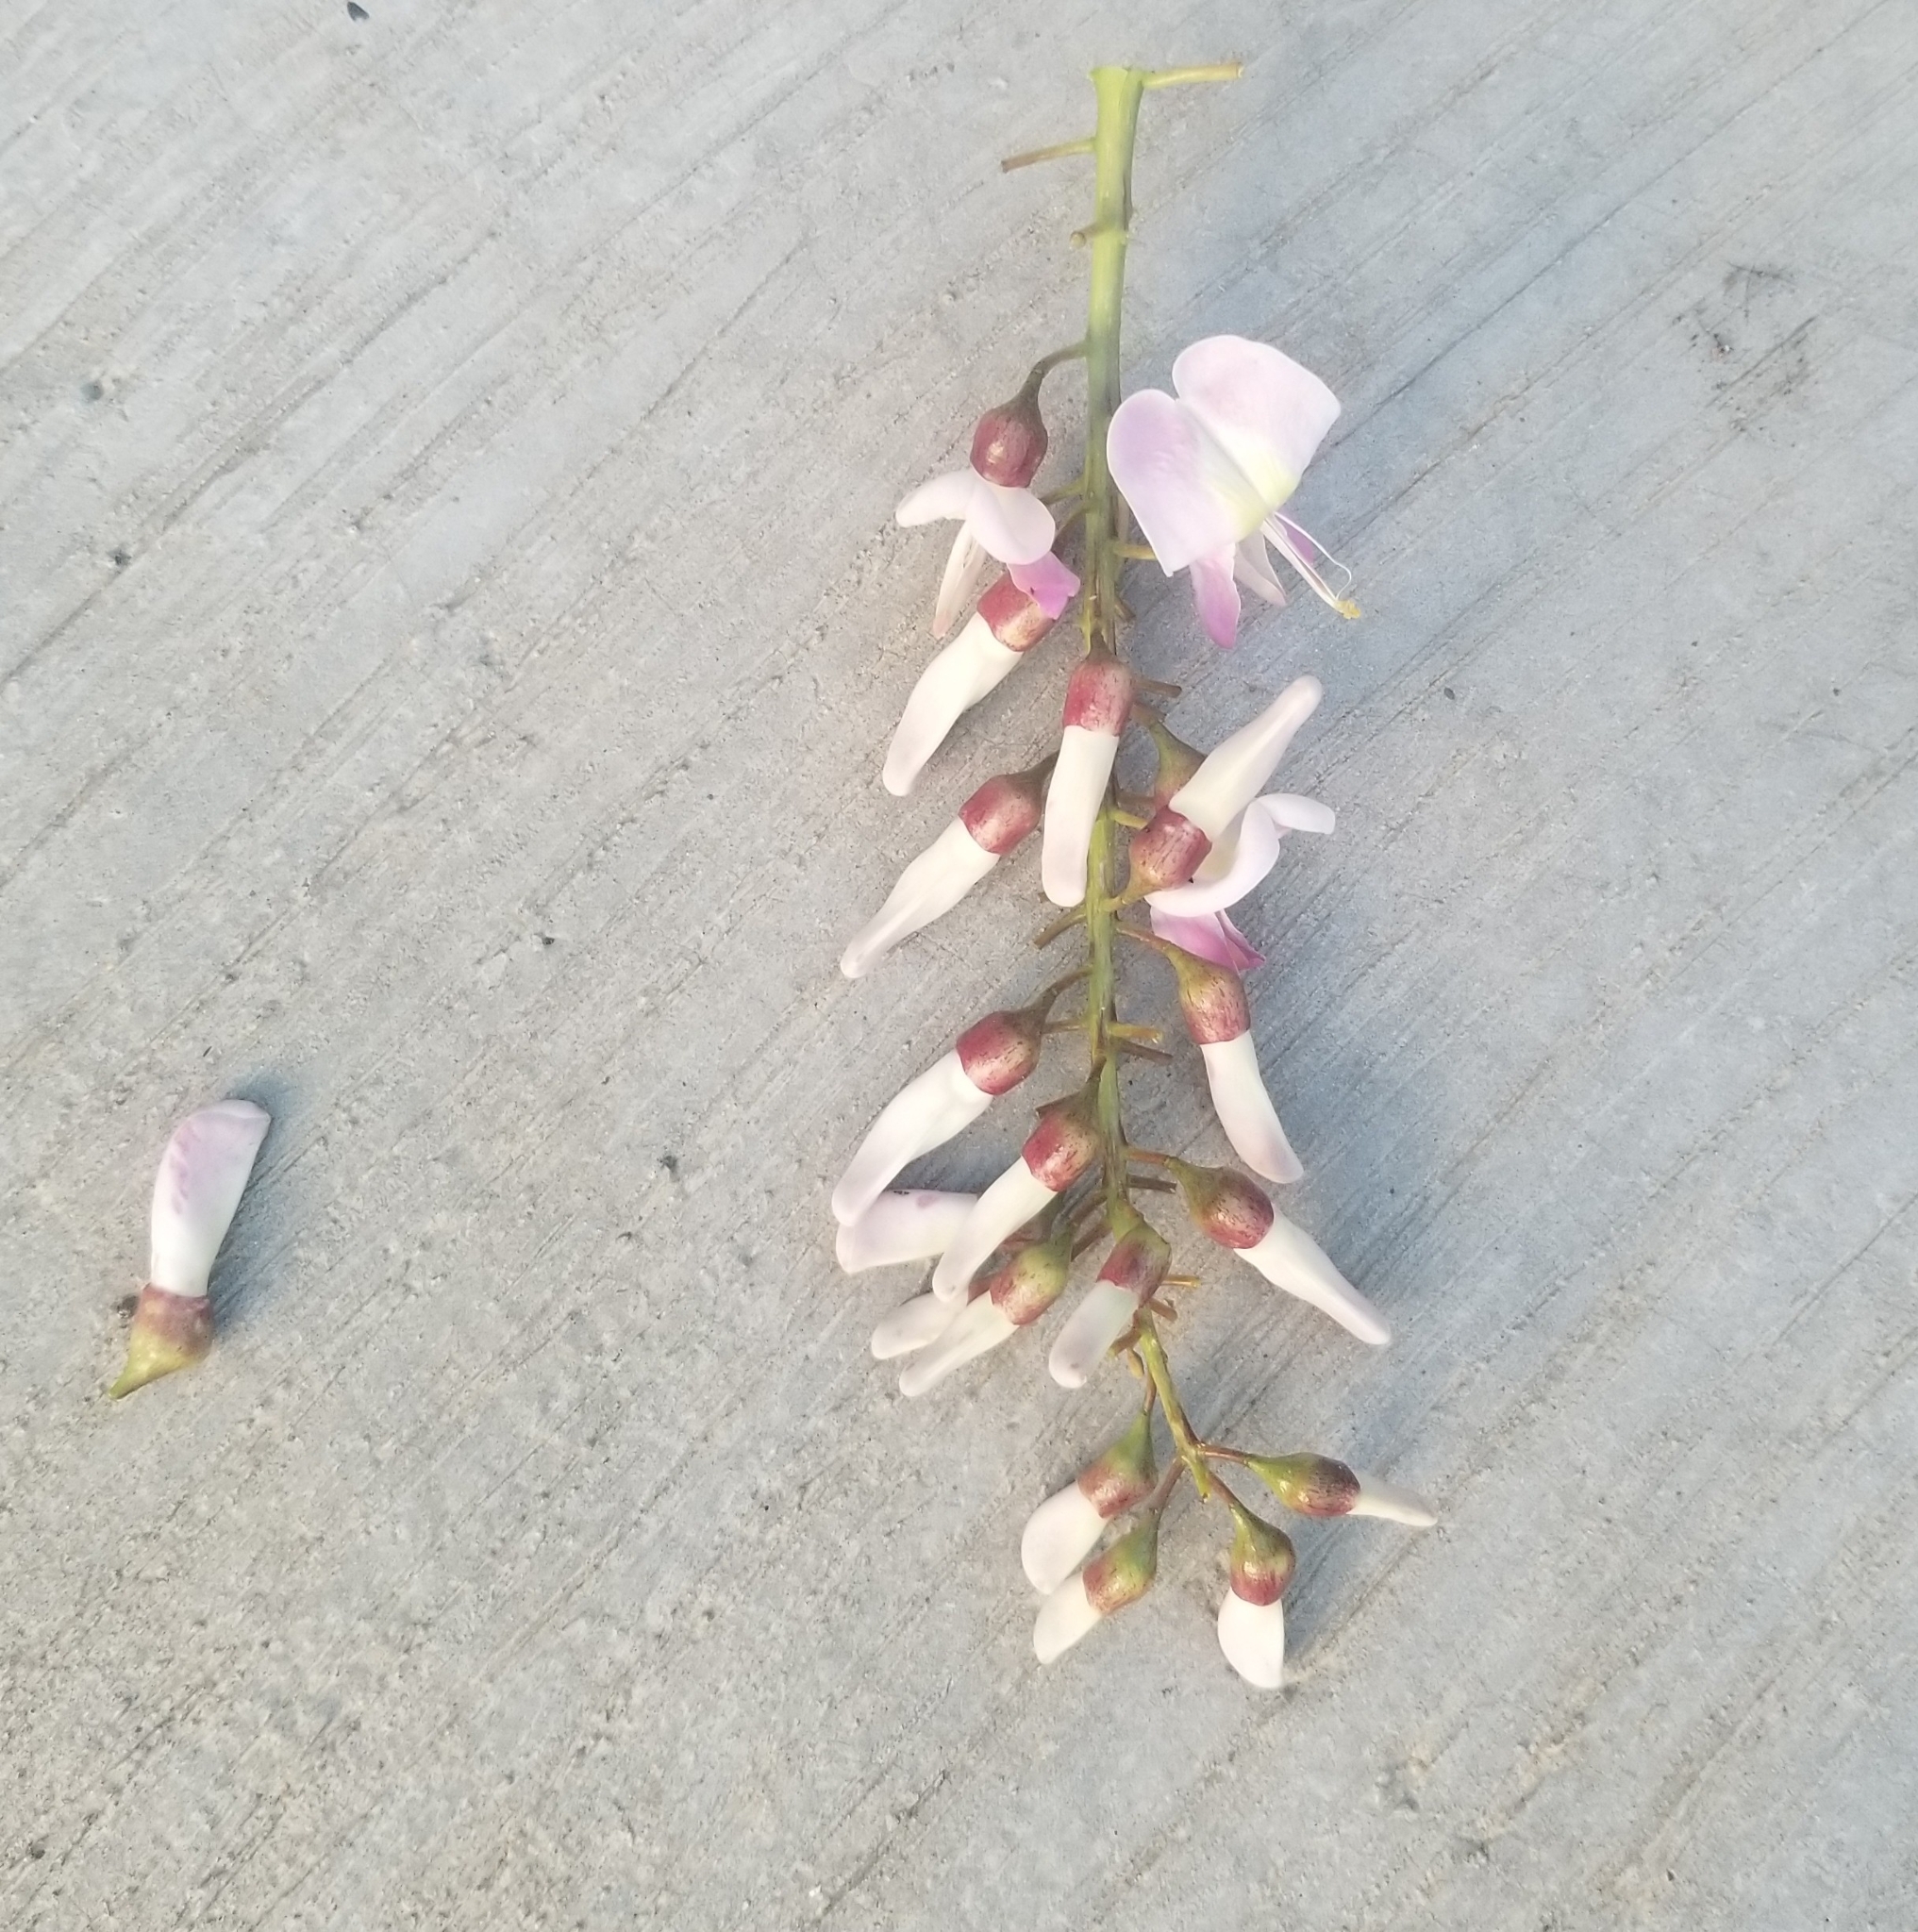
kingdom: Plantae
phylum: Tracheophyta
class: Magnoliopsida
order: Fabales
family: Fabaceae
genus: Gliricidia
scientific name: Gliricidia sepium
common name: Quickstick
